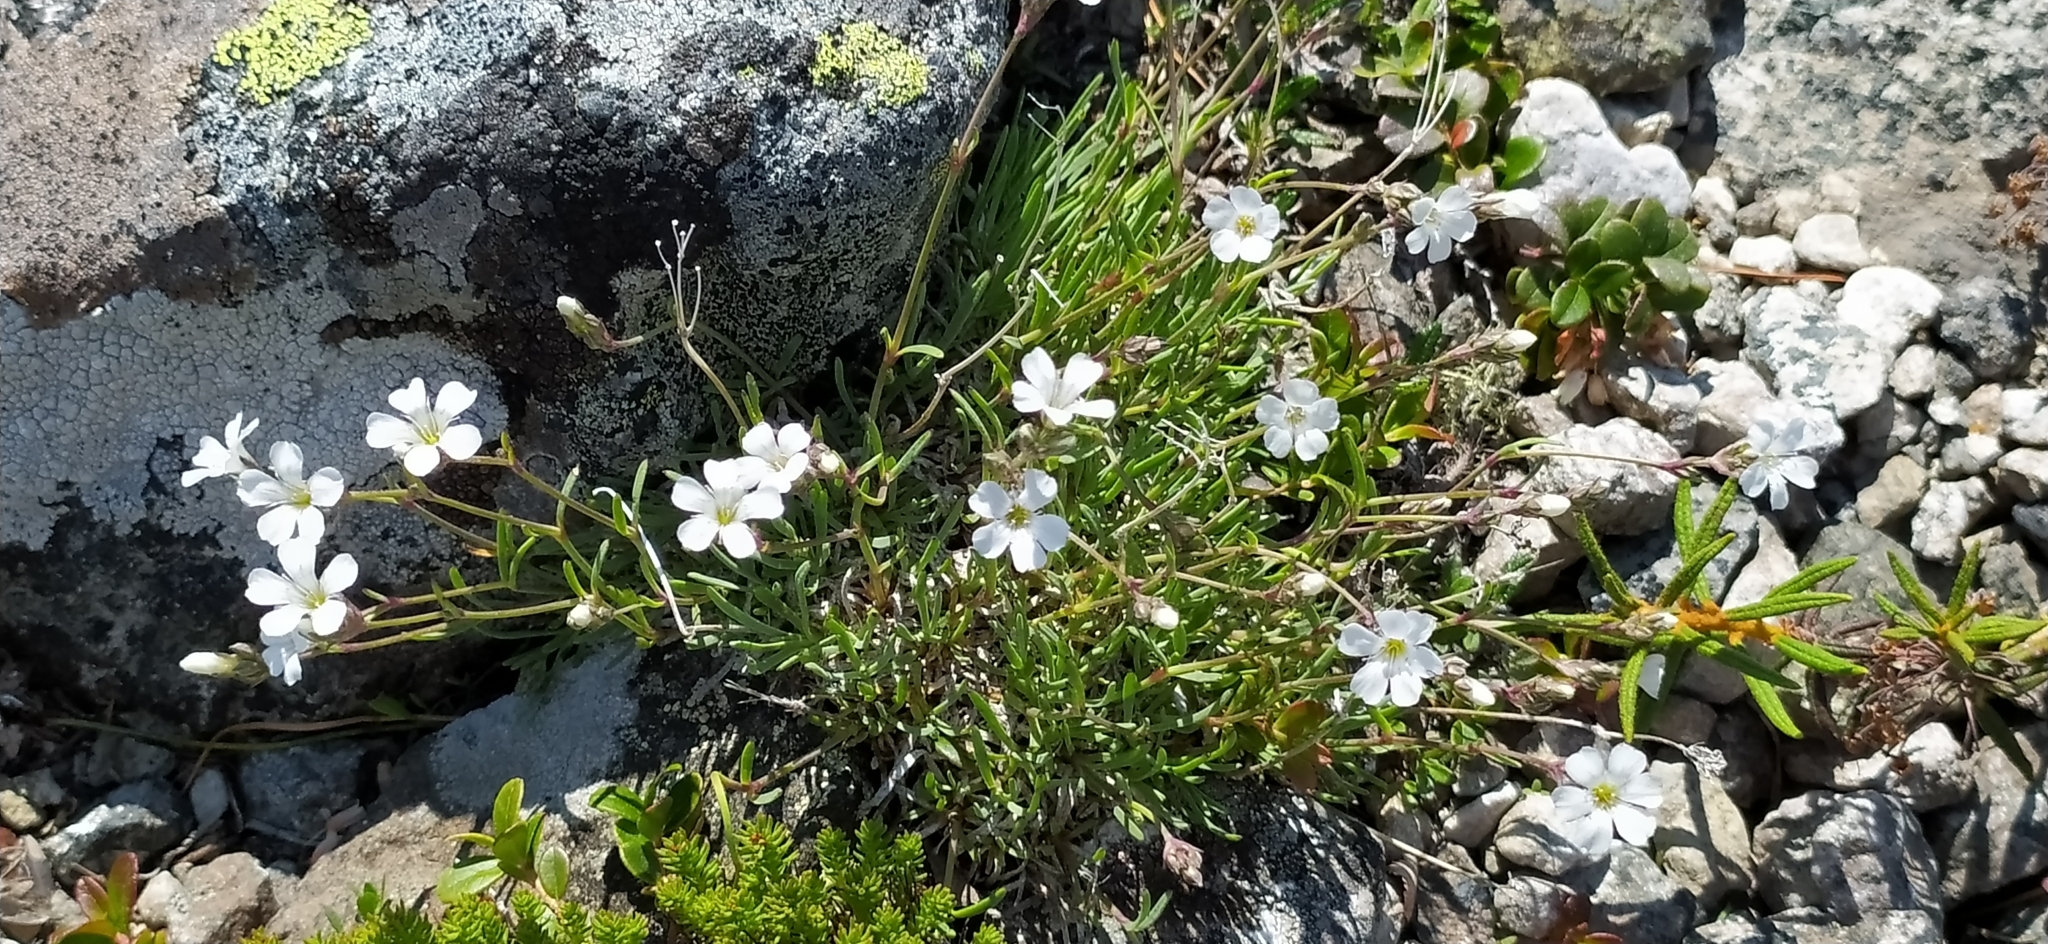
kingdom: Plantae
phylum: Tracheophyta
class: Magnoliopsida
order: Caryophyllales
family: Caryophyllaceae
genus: Gypsophila
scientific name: Gypsophila uralensis
